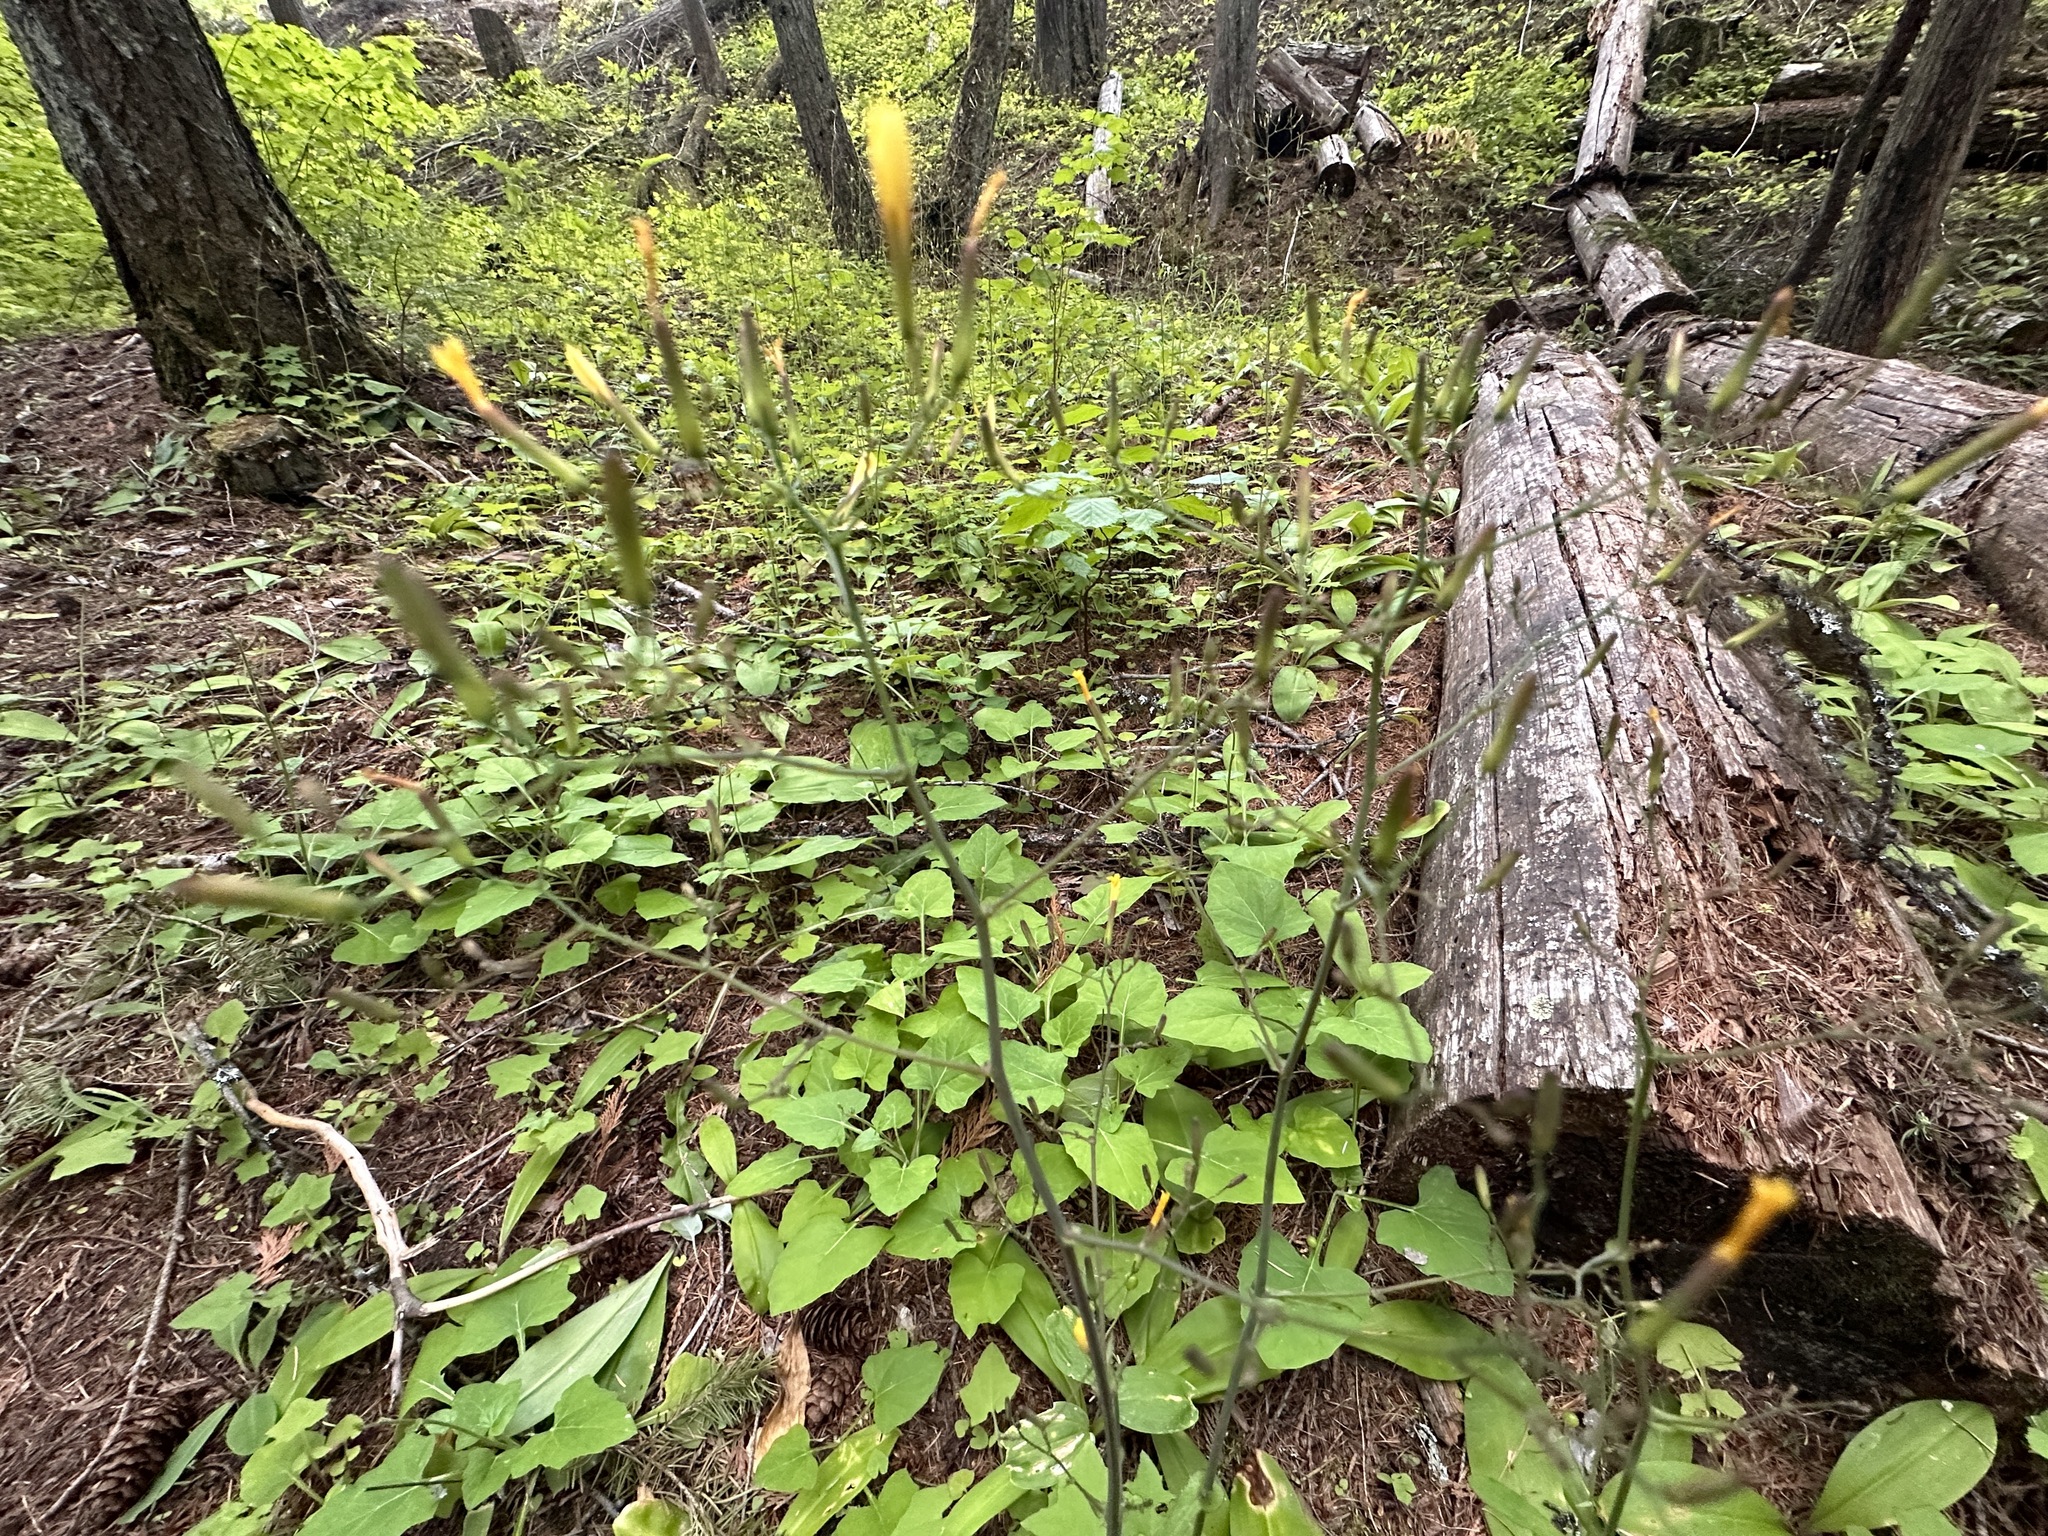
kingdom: Plantae
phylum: Tracheophyta
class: Magnoliopsida
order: Asterales
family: Asteraceae
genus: Mycelis
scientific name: Mycelis muralis
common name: Wall lettuce
